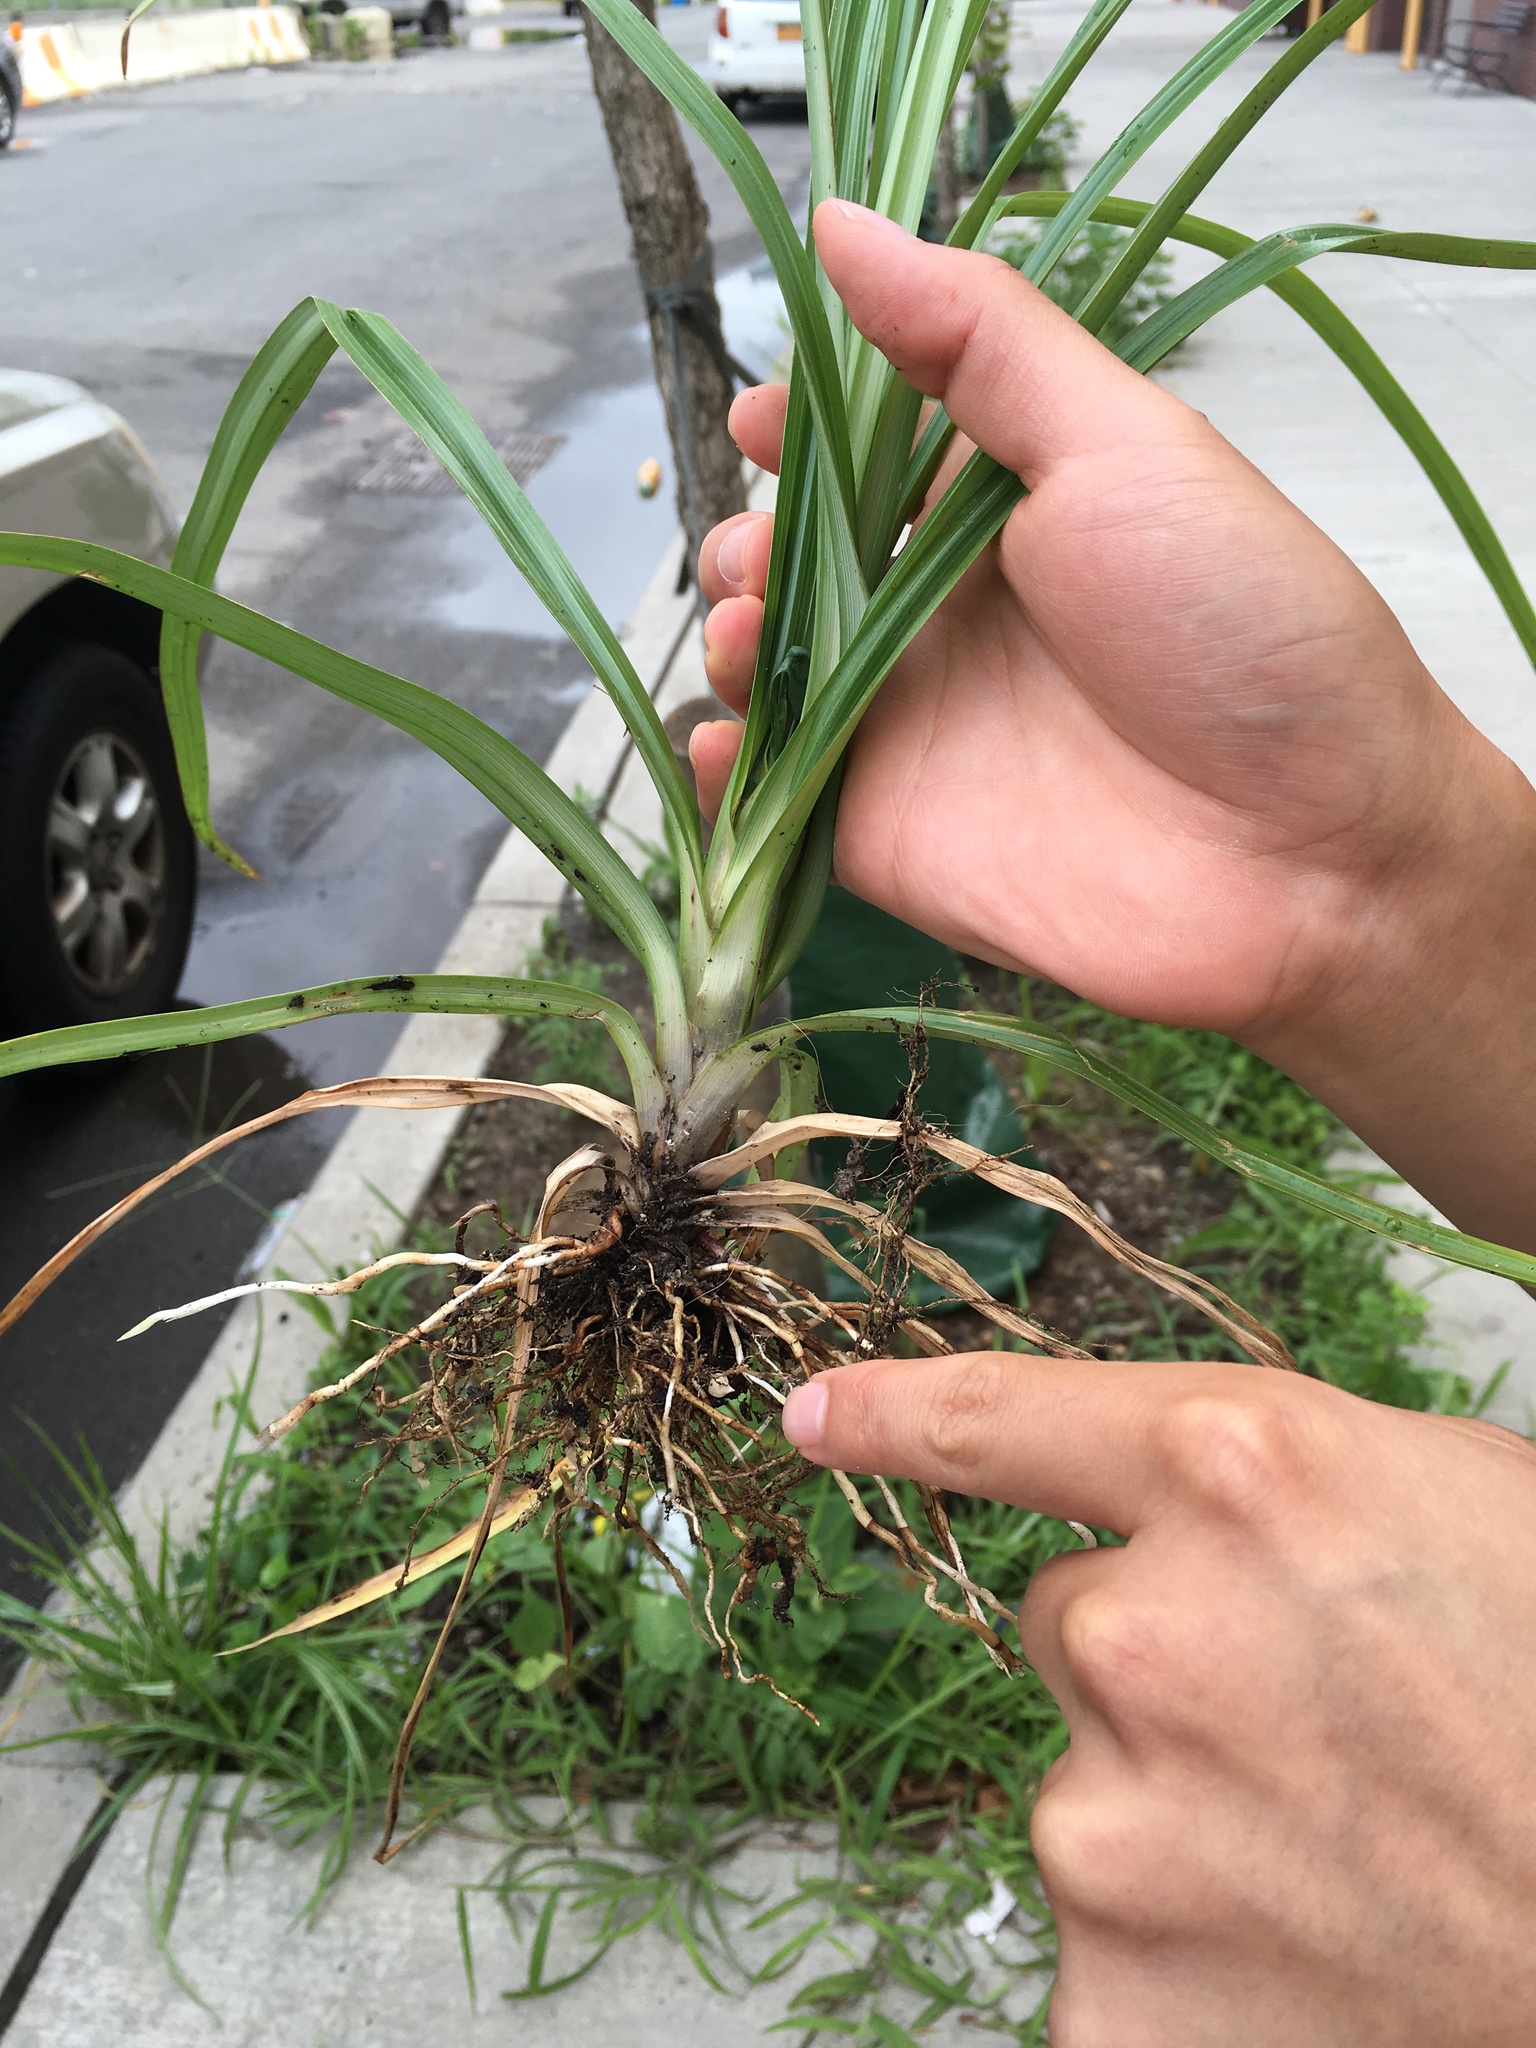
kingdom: Plantae
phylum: Tracheophyta
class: Liliopsida
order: Poales
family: Cyperaceae
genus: Cyperus
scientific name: Cyperus esculentus
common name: Yellow nutsedge
